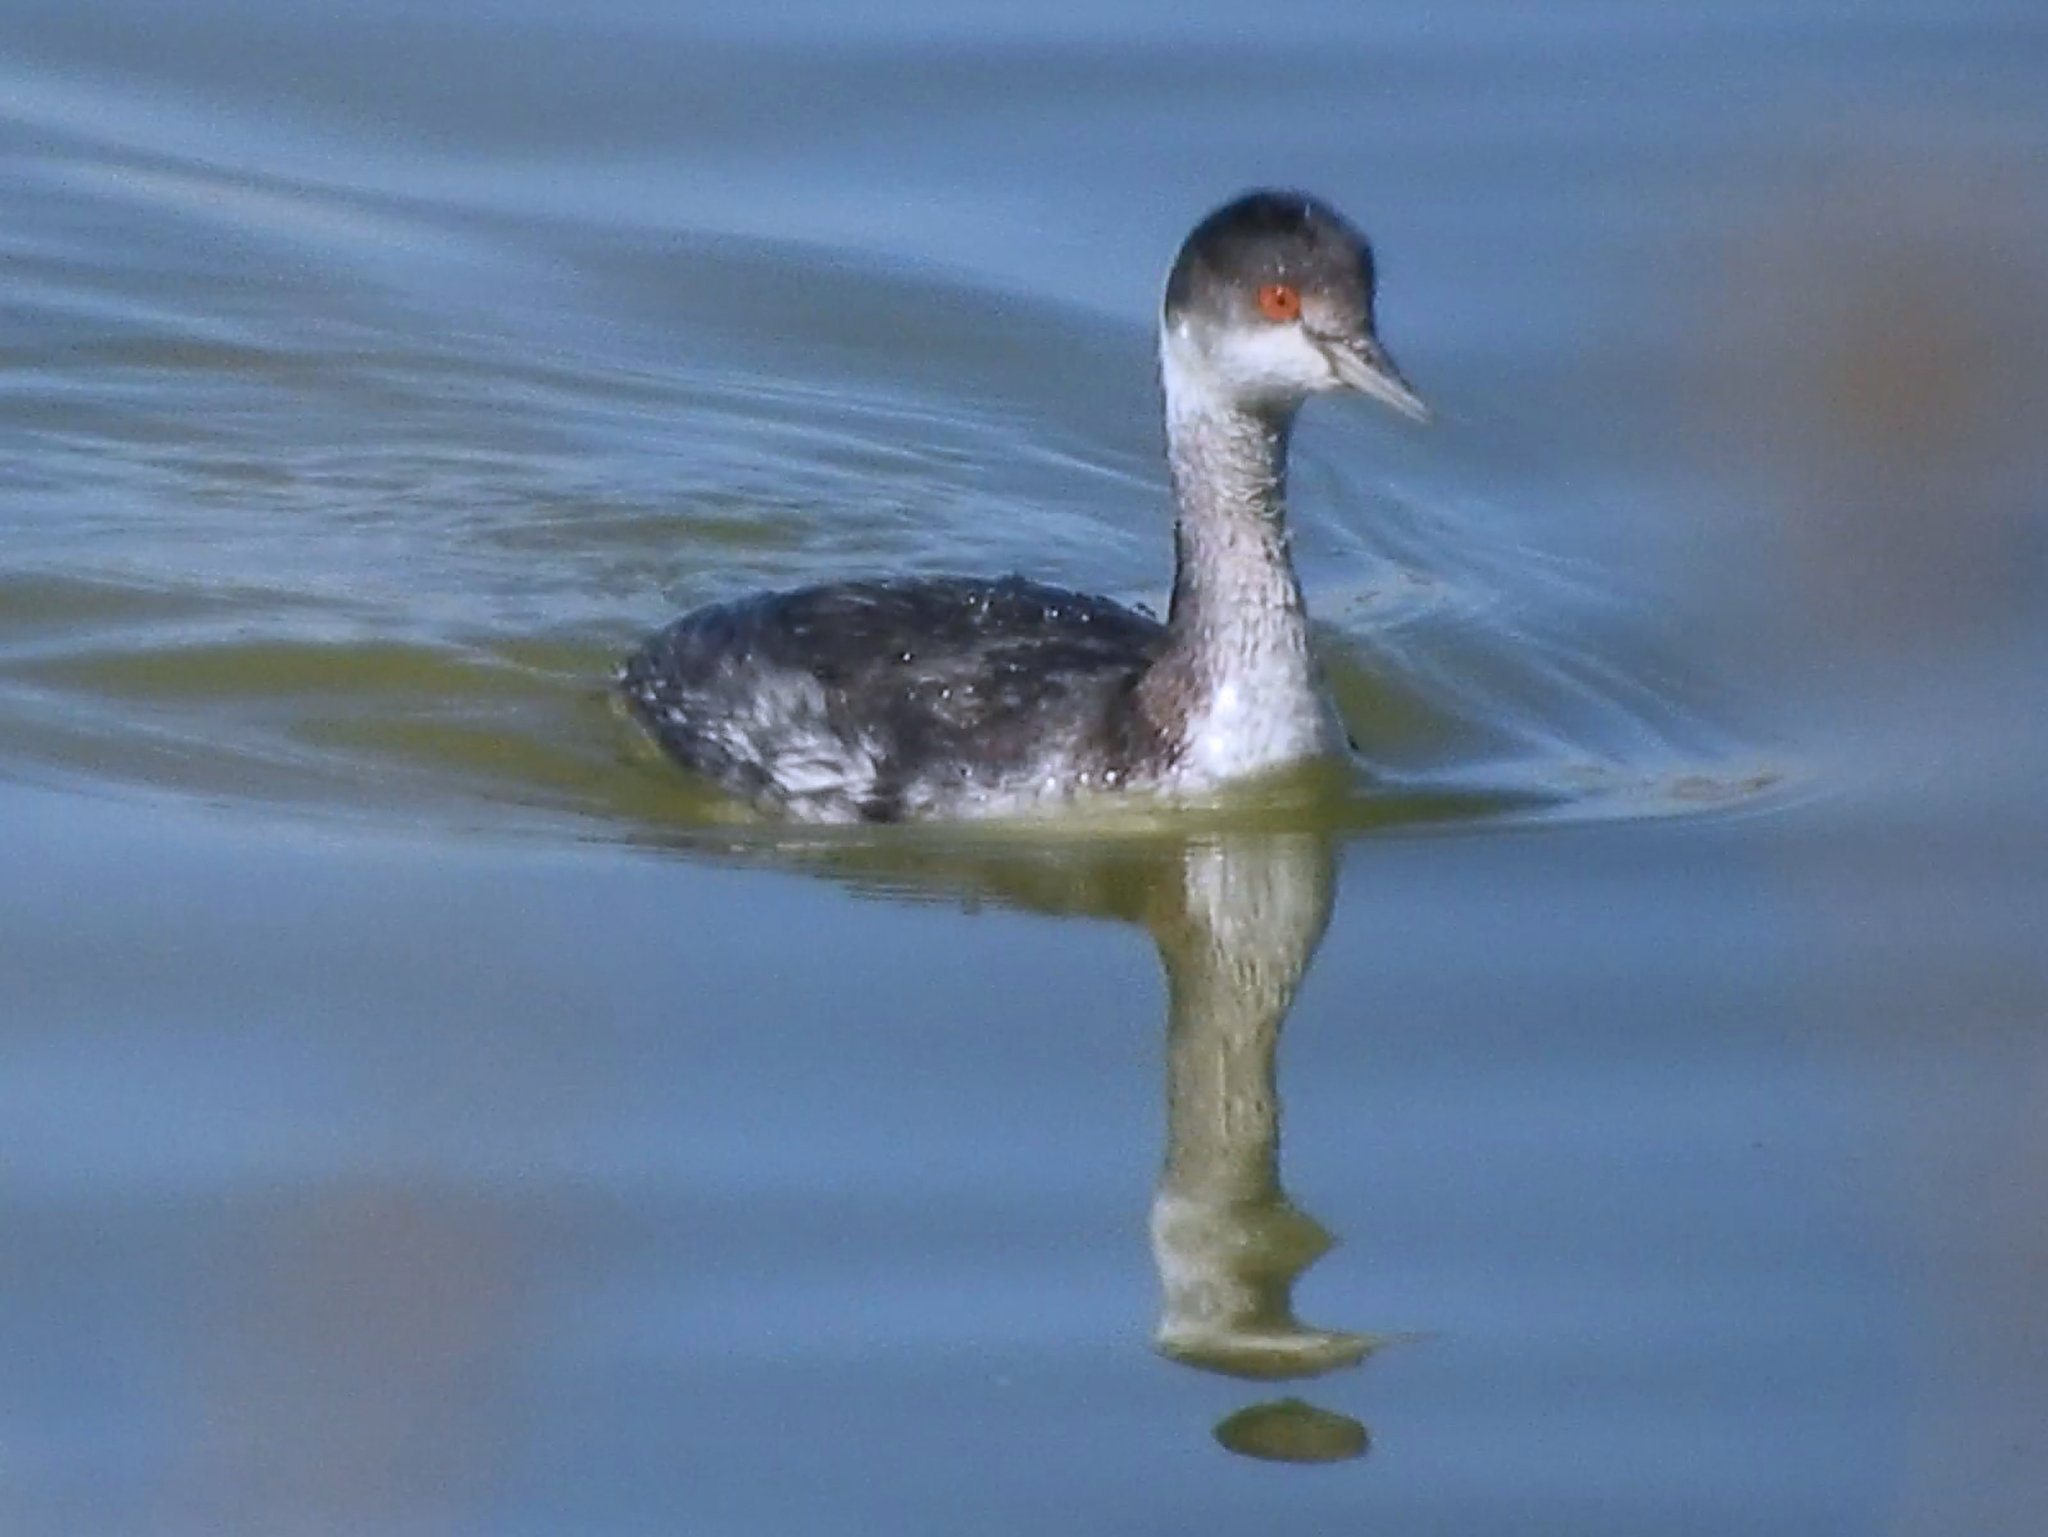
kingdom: Animalia
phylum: Chordata
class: Aves
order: Podicipediformes
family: Podicipedidae
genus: Podiceps
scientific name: Podiceps nigricollis
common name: Black-necked grebe
